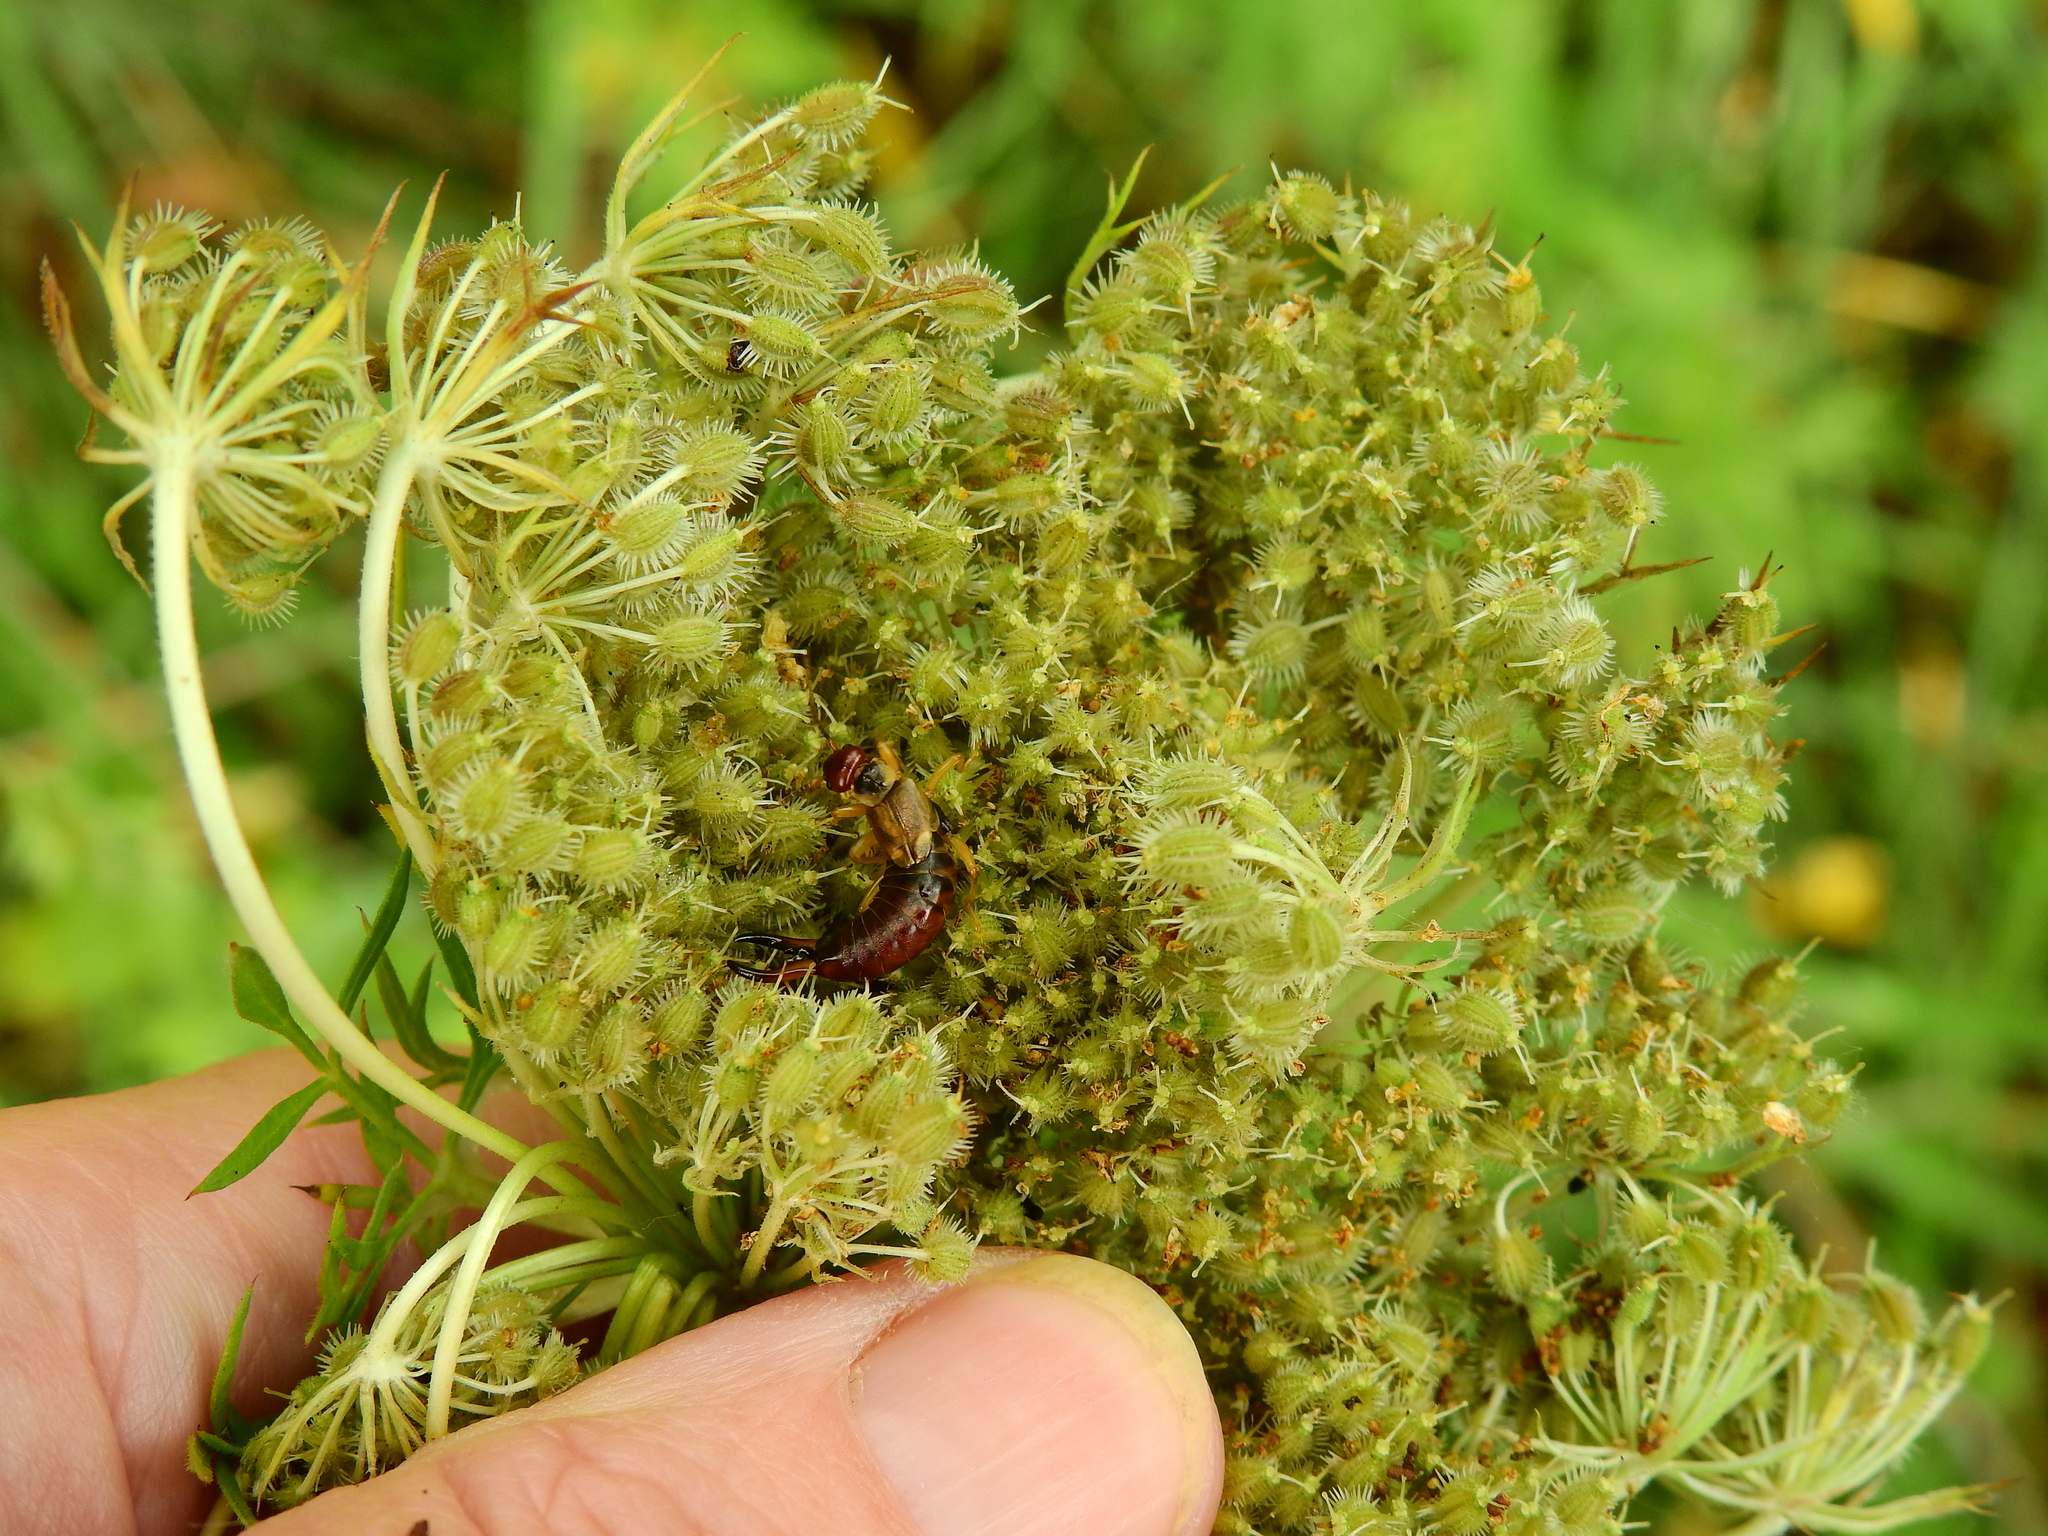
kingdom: Animalia
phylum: Arthropoda
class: Insecta
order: Dermaptera
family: Forficulidae
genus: Forficula
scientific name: Forficula
